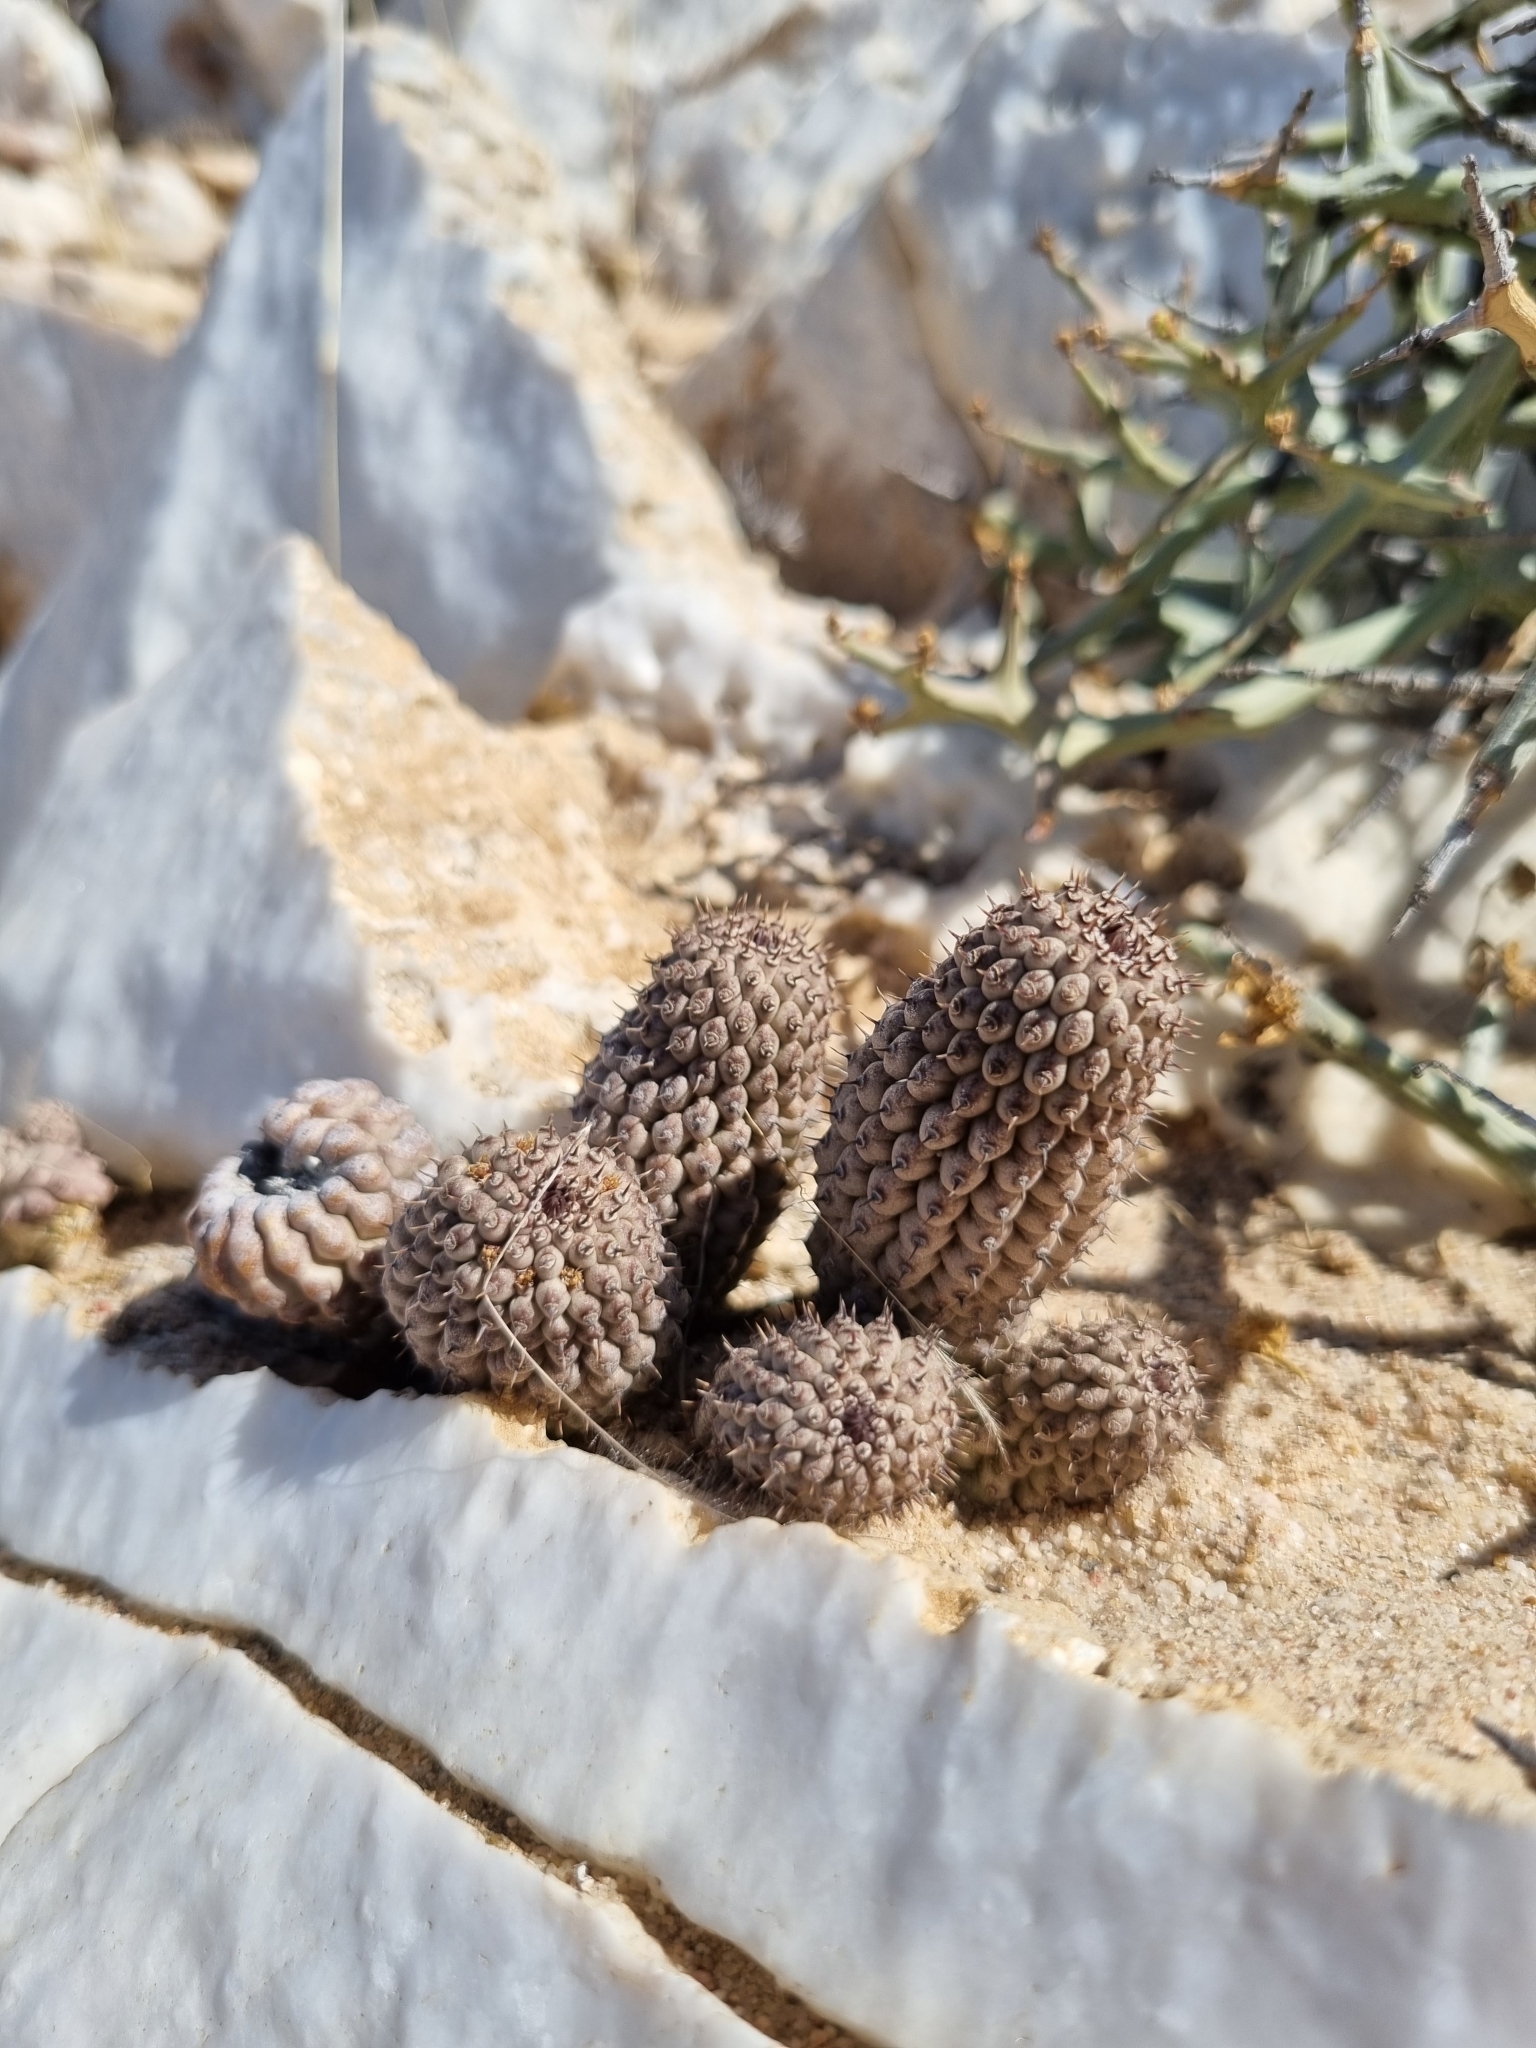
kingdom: Plantae
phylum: Tracheophyta
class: Magnoliopsida
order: Gentianales
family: Apocynaceae
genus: Ceropegia
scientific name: Ceropegia pedicellata
